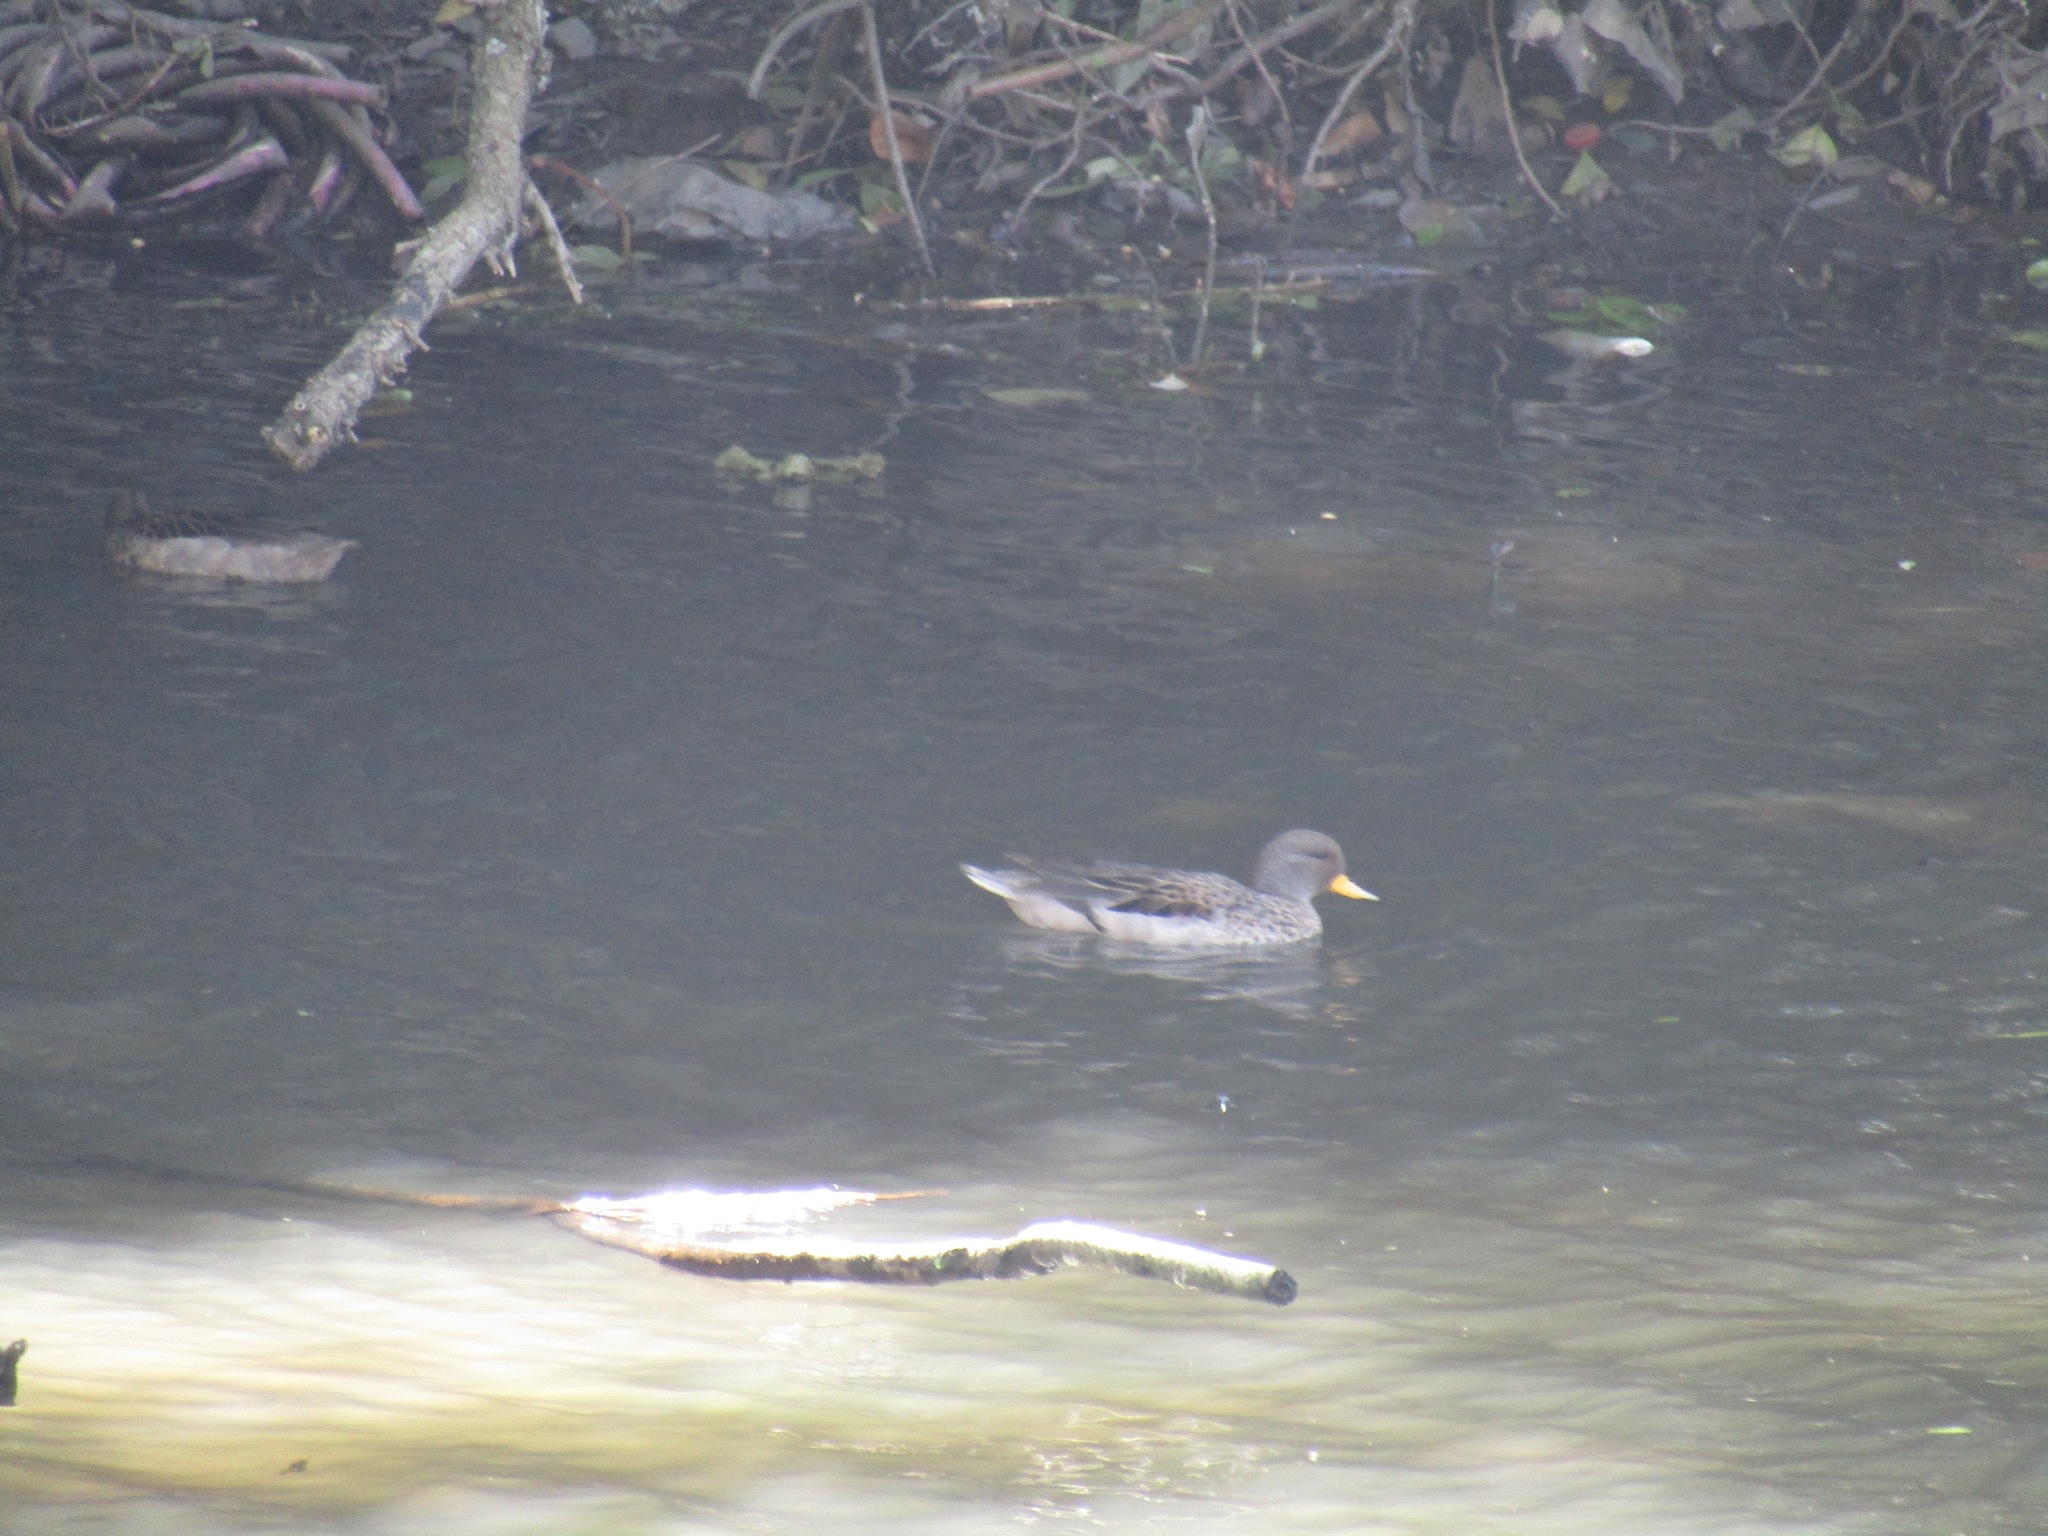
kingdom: Animalia
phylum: Chordata
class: Aves
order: Anseriformes
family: Anatidae
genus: Anas
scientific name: Anas flavirostris
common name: Yellow-billed teal
